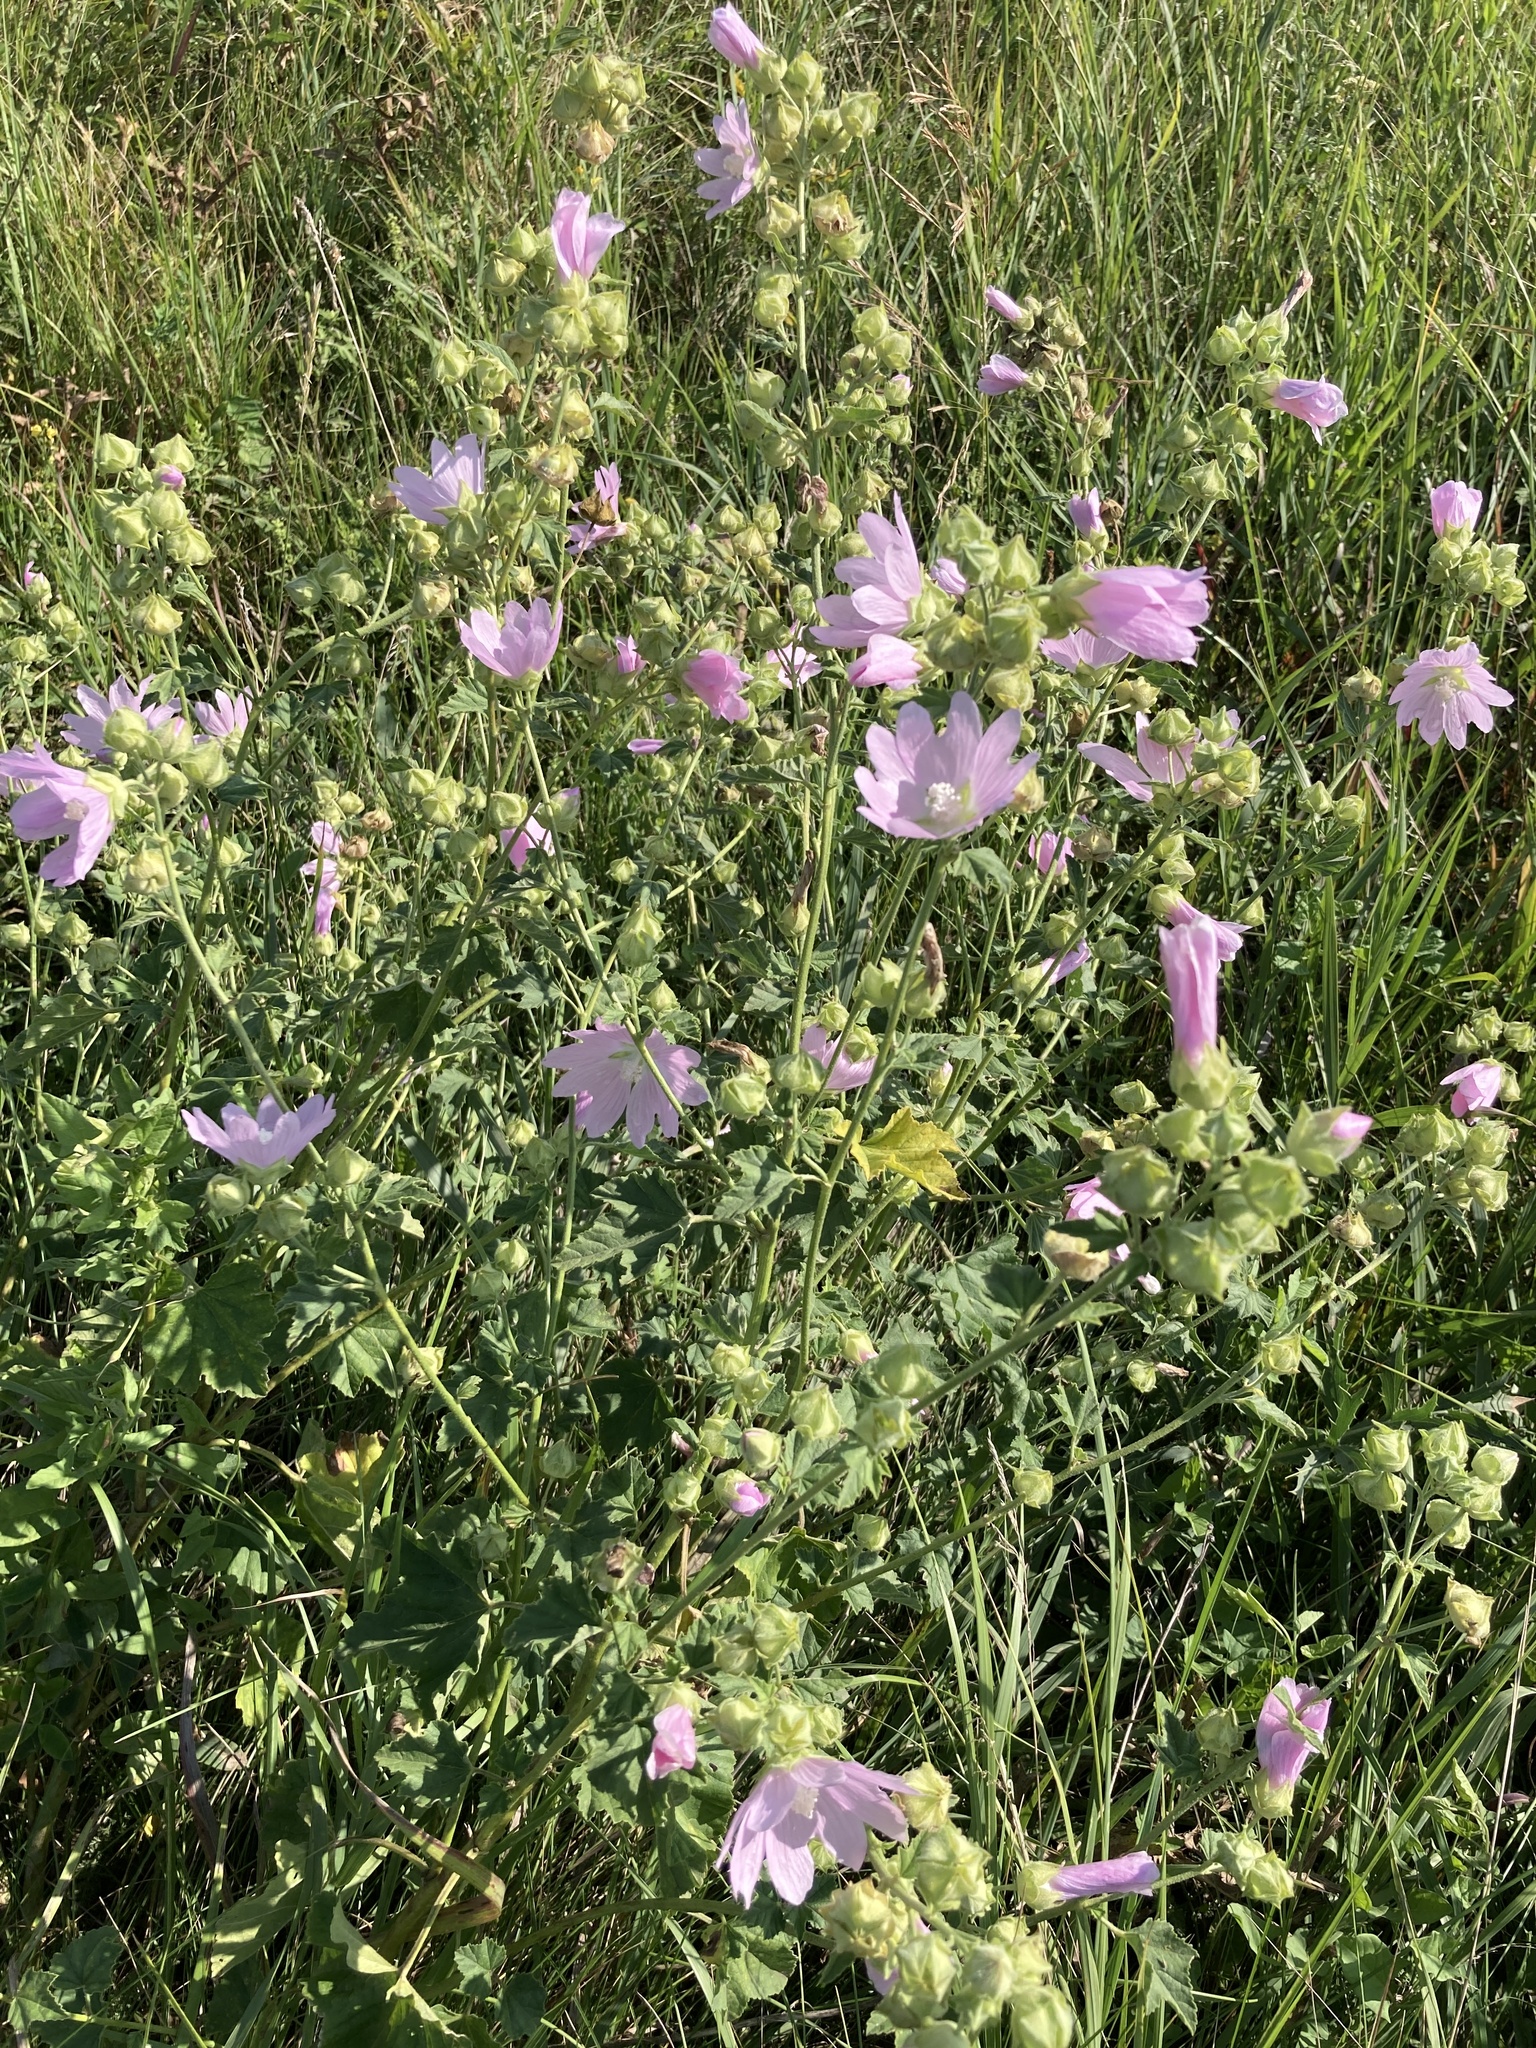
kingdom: Plantae
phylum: Tracheophyta
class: Magnoliopsida
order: Malvales
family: Malvaceae
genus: Malva
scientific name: Malva thuringiaca
